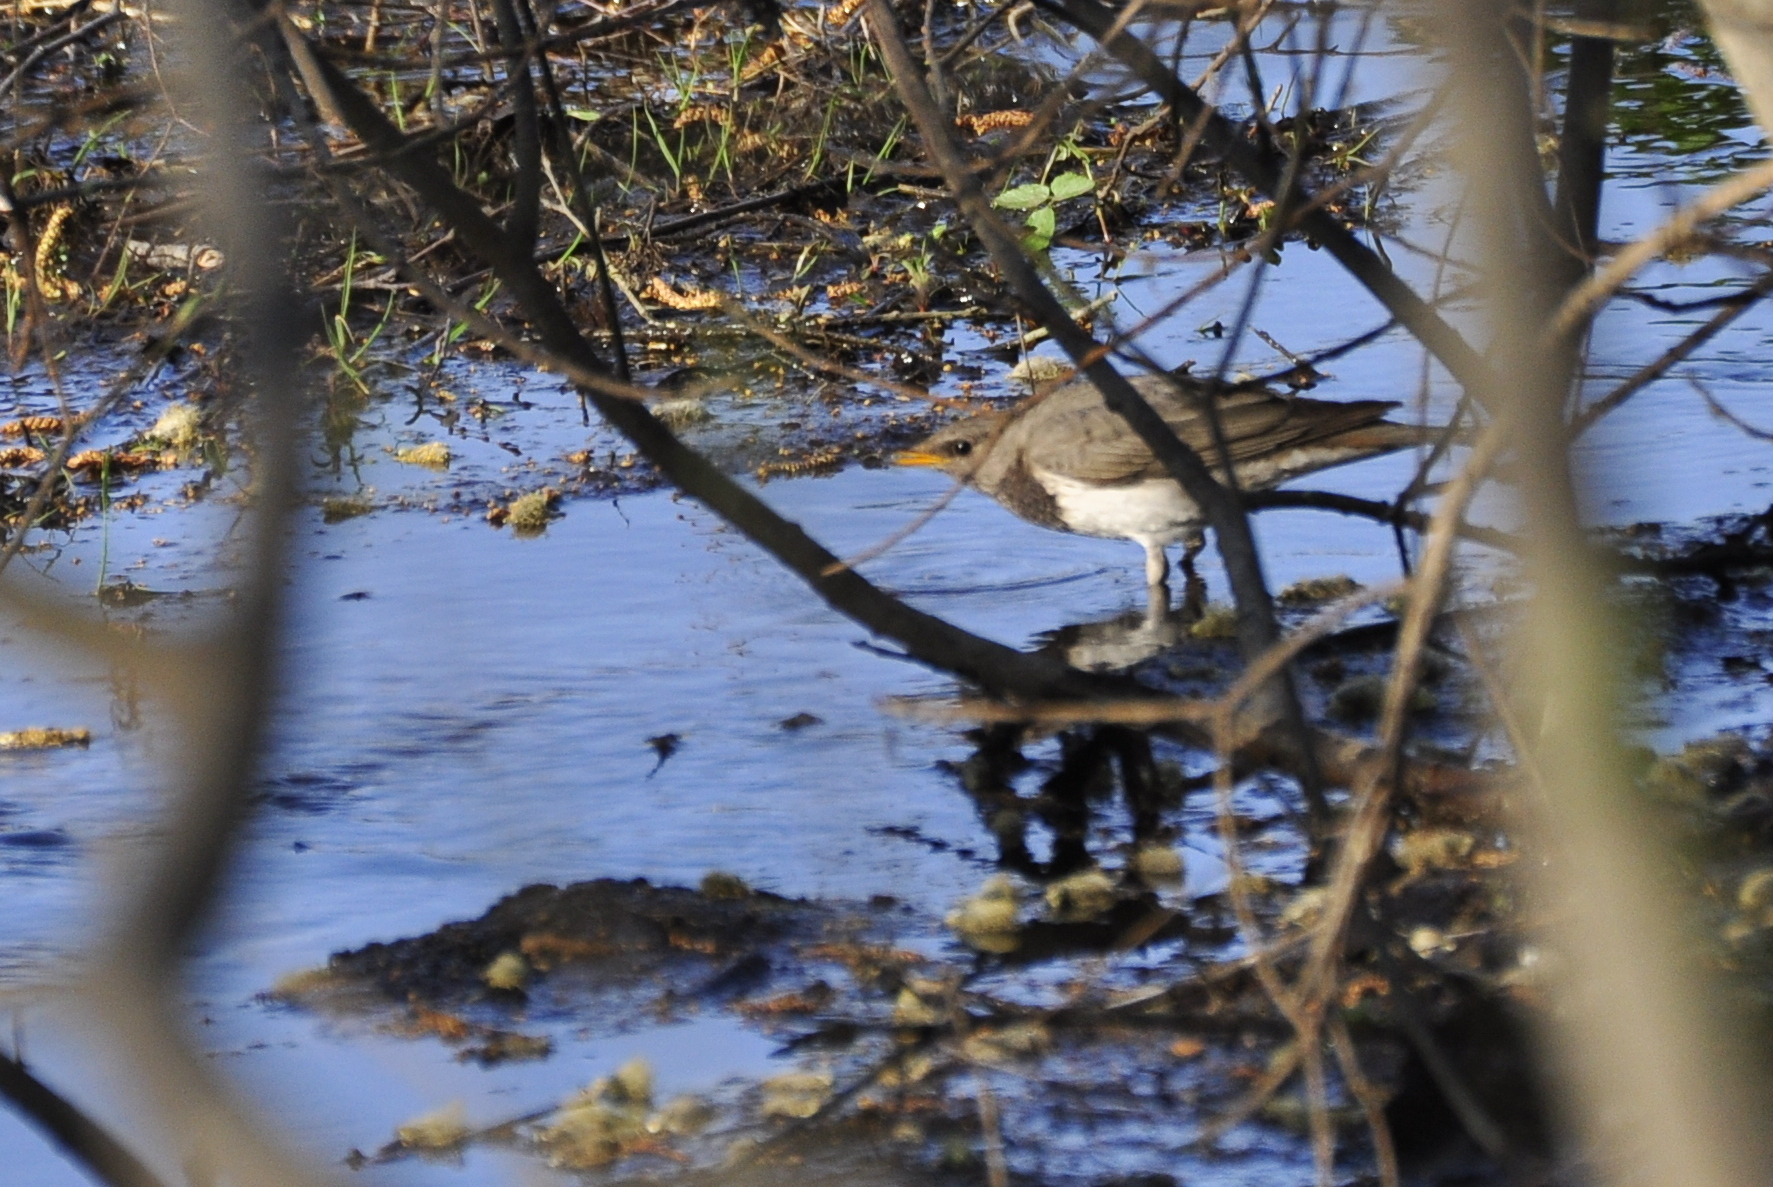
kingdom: Animalia
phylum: Chordata
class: Aves
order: Passeriformes
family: Turdidae
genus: Turdus
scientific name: Turdus atrogularis
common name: Black-throated thrush
